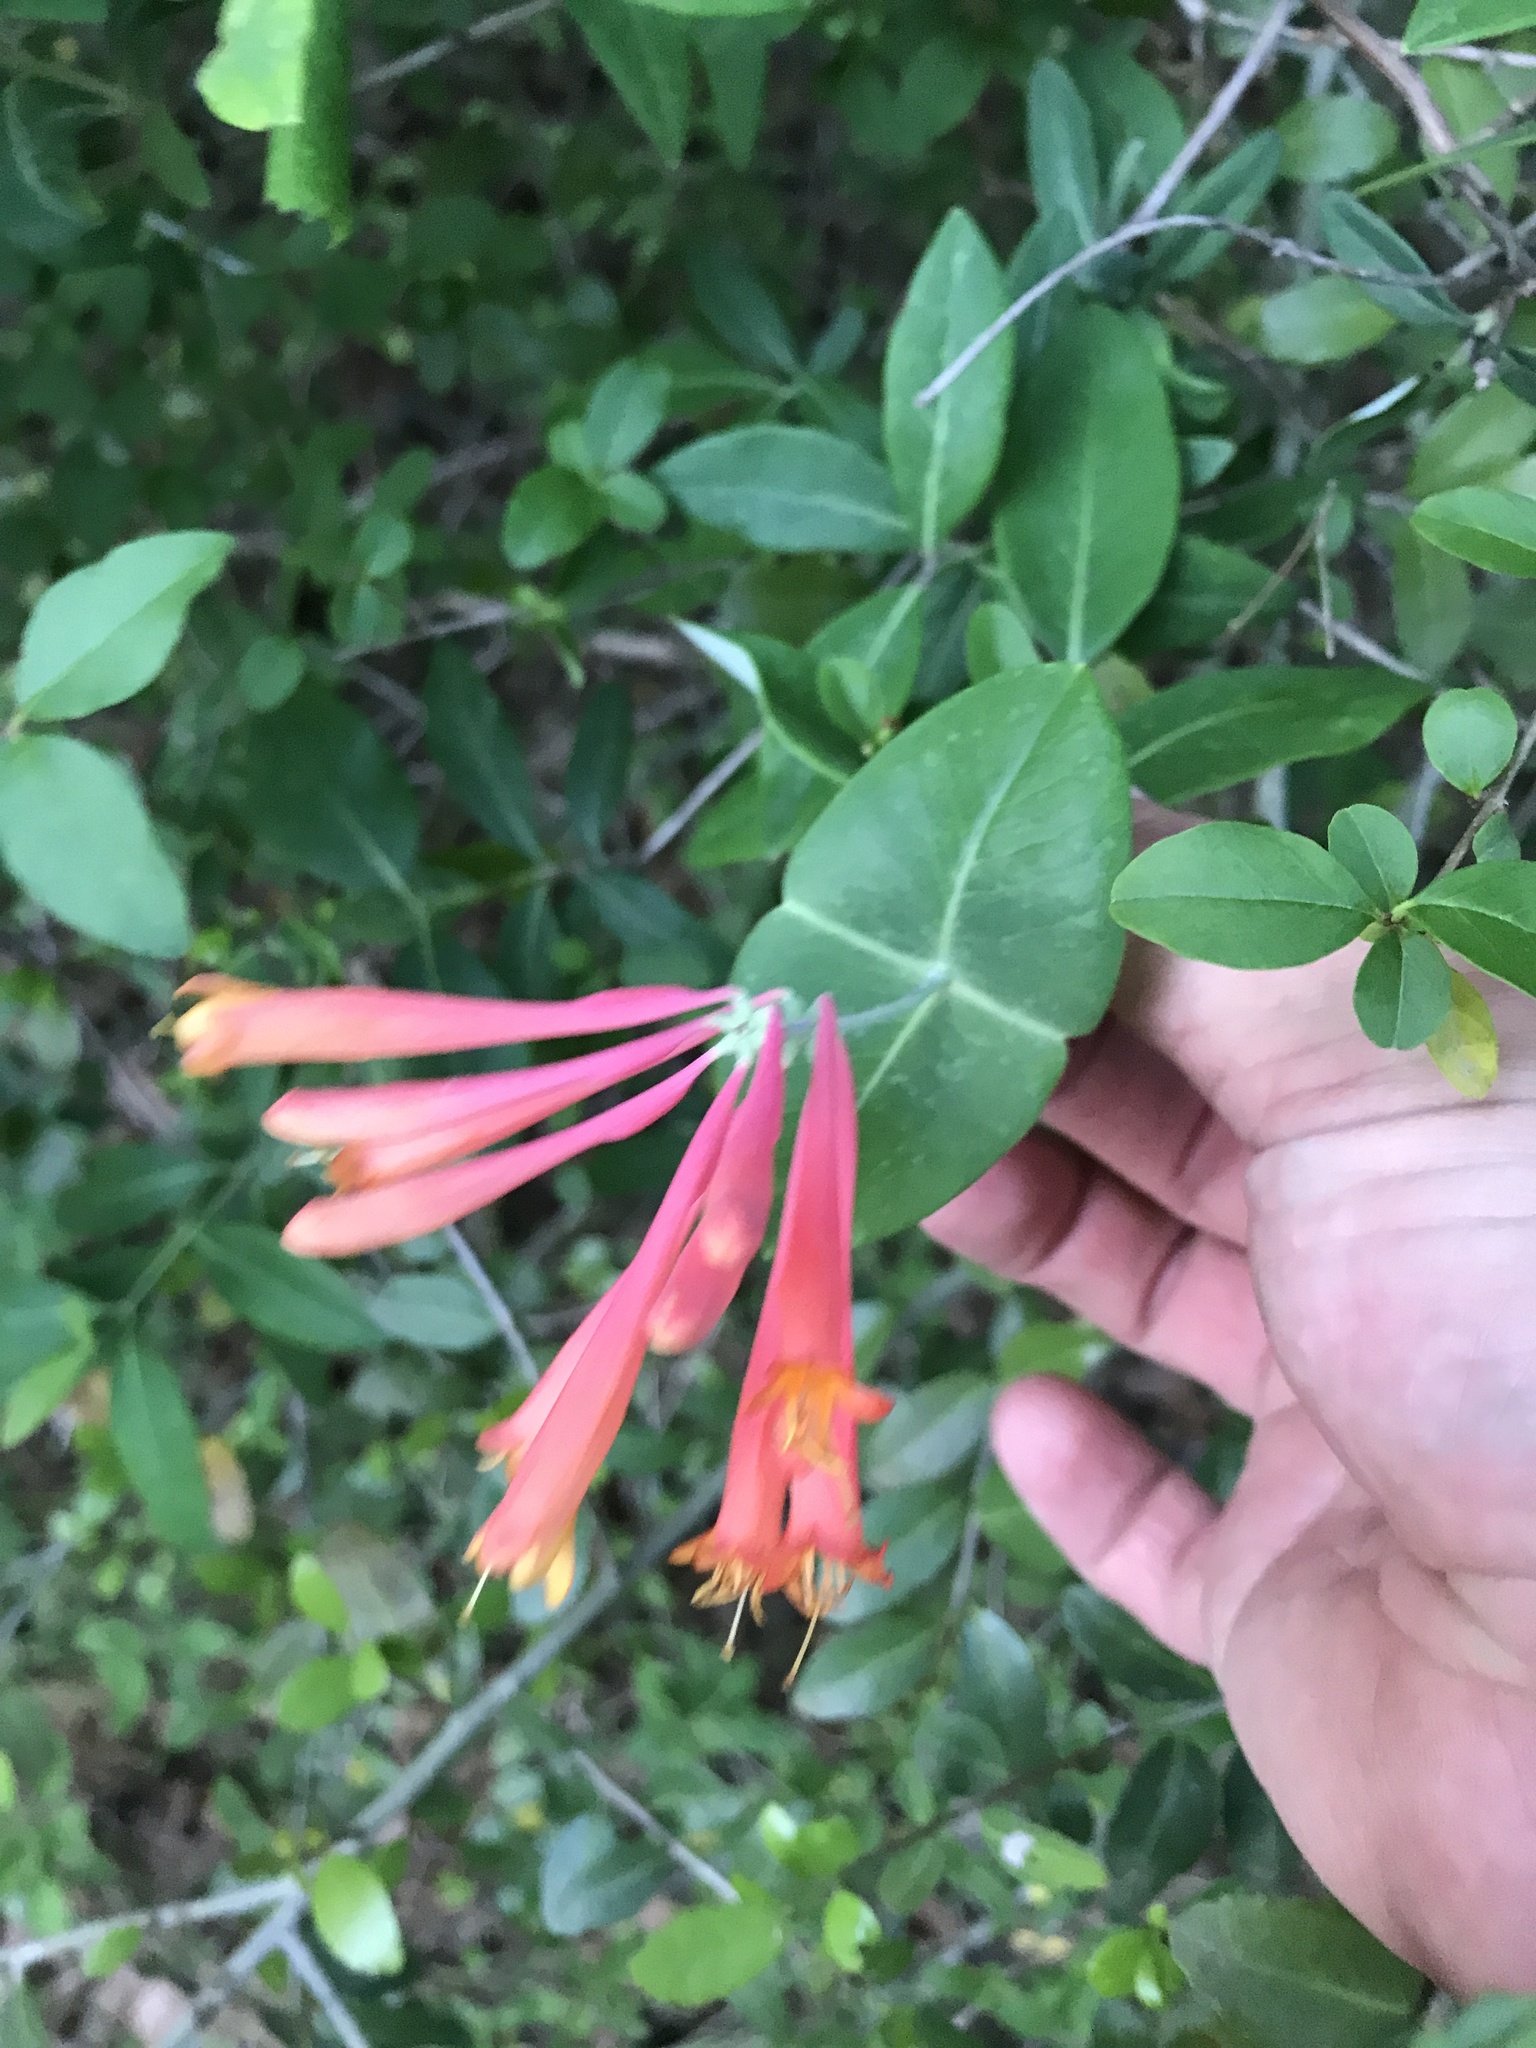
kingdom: Plantae
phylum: Tracheophyta
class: Magnoliopsida
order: Dipsacales
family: Caprifoliaceae
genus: Lonicera
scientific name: Lonicera sempervirens
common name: Coral honeysuckle
